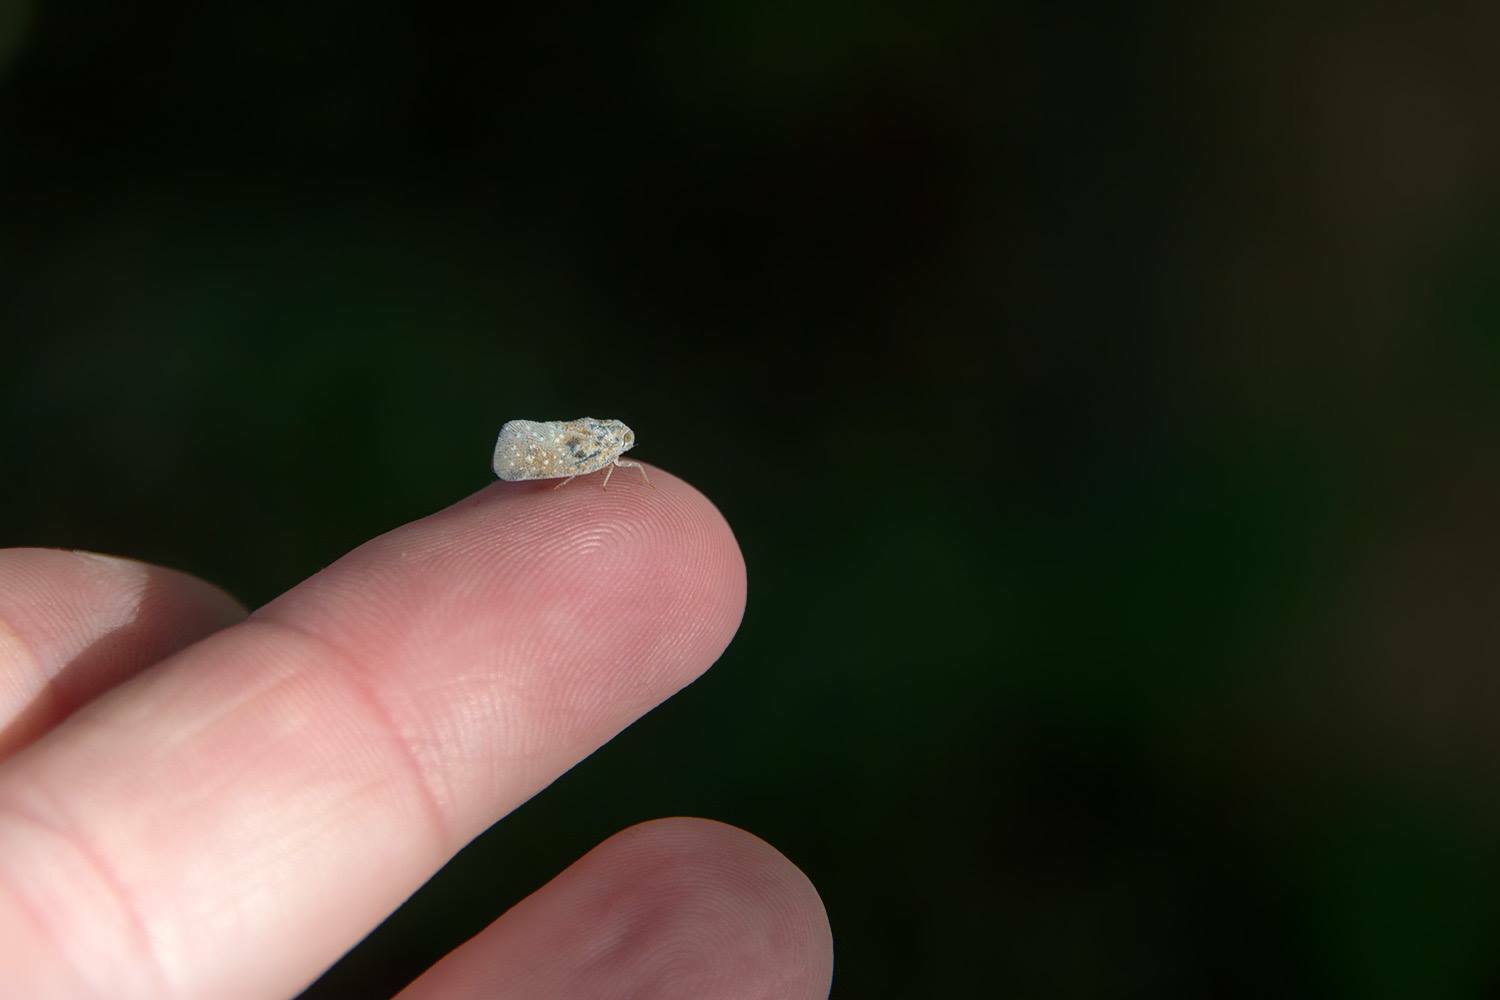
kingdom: Animalia
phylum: Arthropoda
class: Insecta
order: Hemiptera
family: Flatidae
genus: Metcalfa
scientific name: Metcalfa pruinosa
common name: Citrus flatid planthopper
